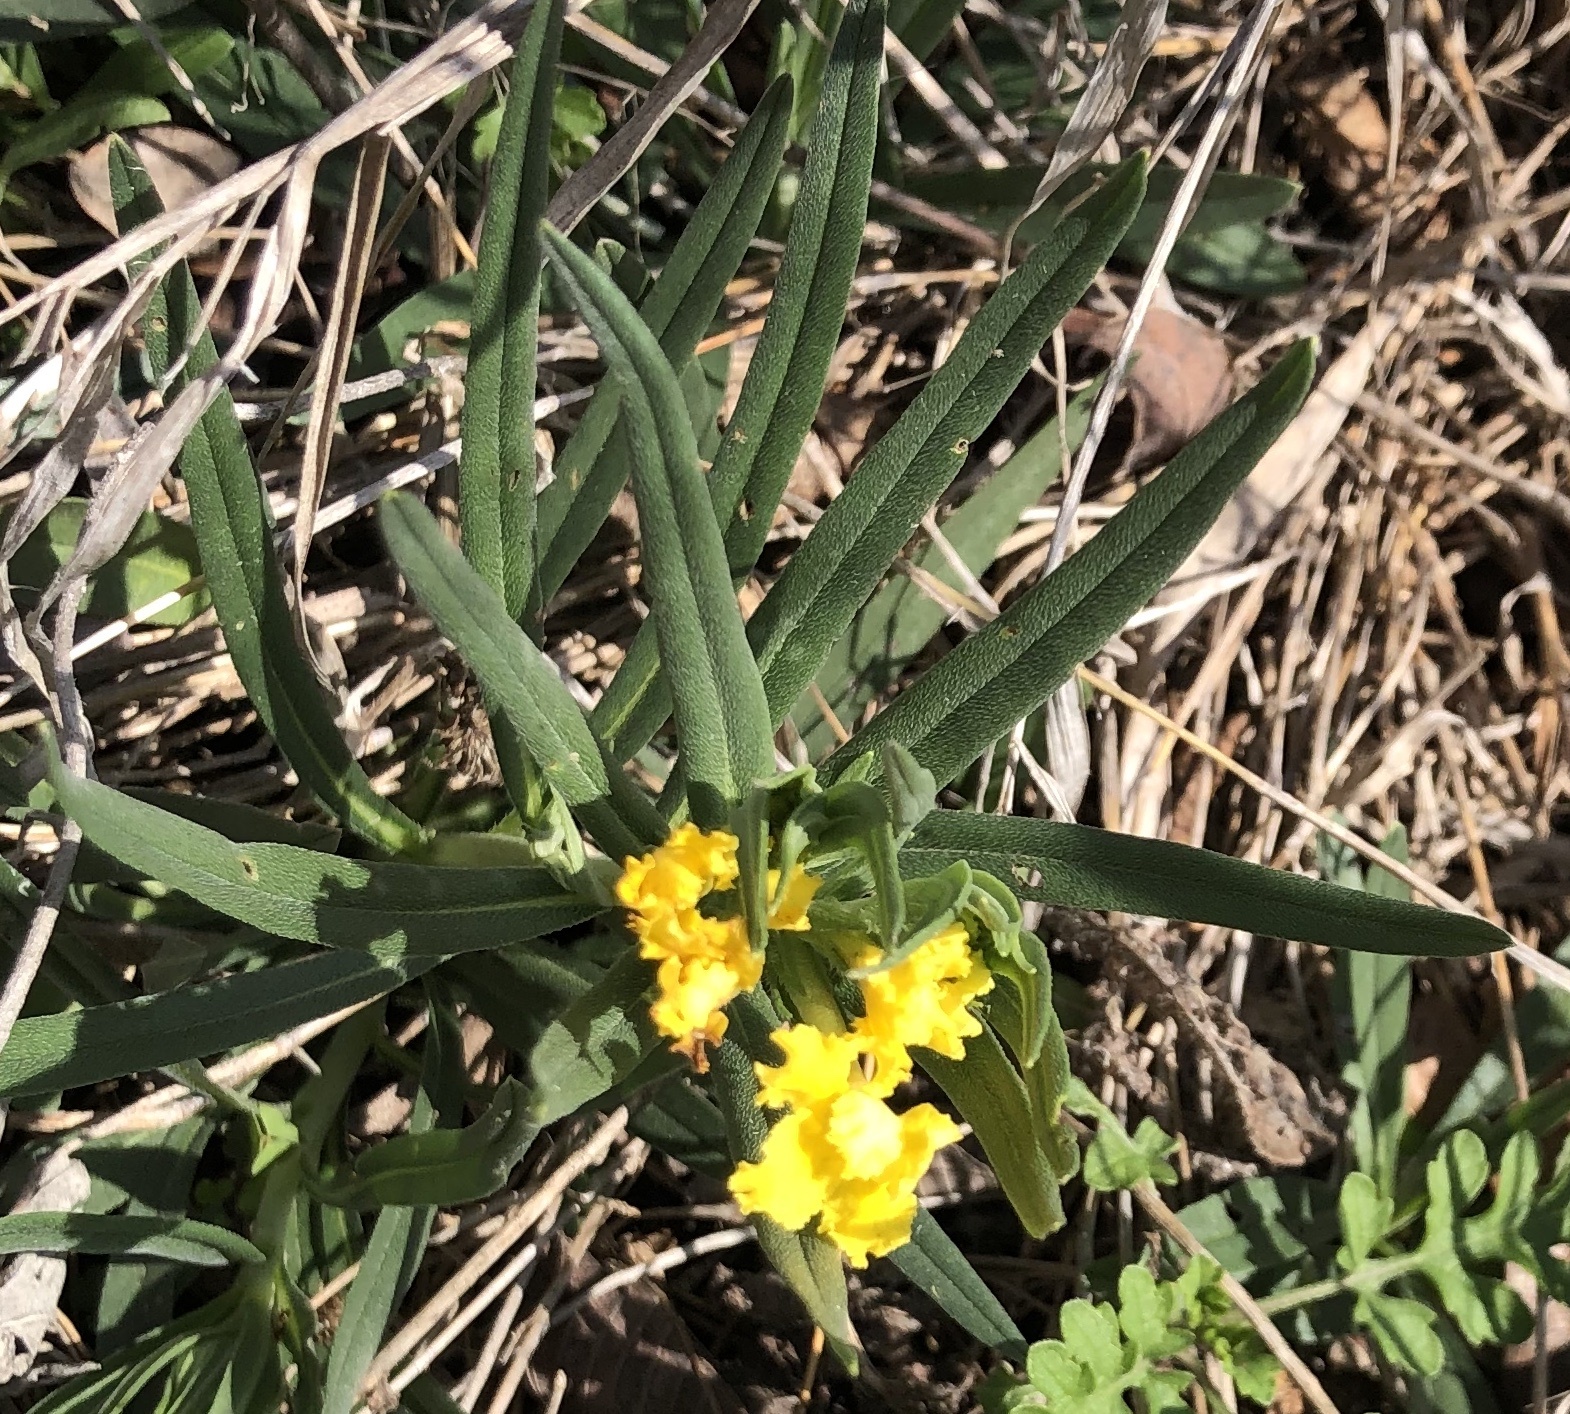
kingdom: Plantae
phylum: Tracheophyta
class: Magnoliopsida
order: Boraginales
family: Boraginaceae
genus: Lithospermum
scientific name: Lithospermum incisum
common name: Fringed gromwell
